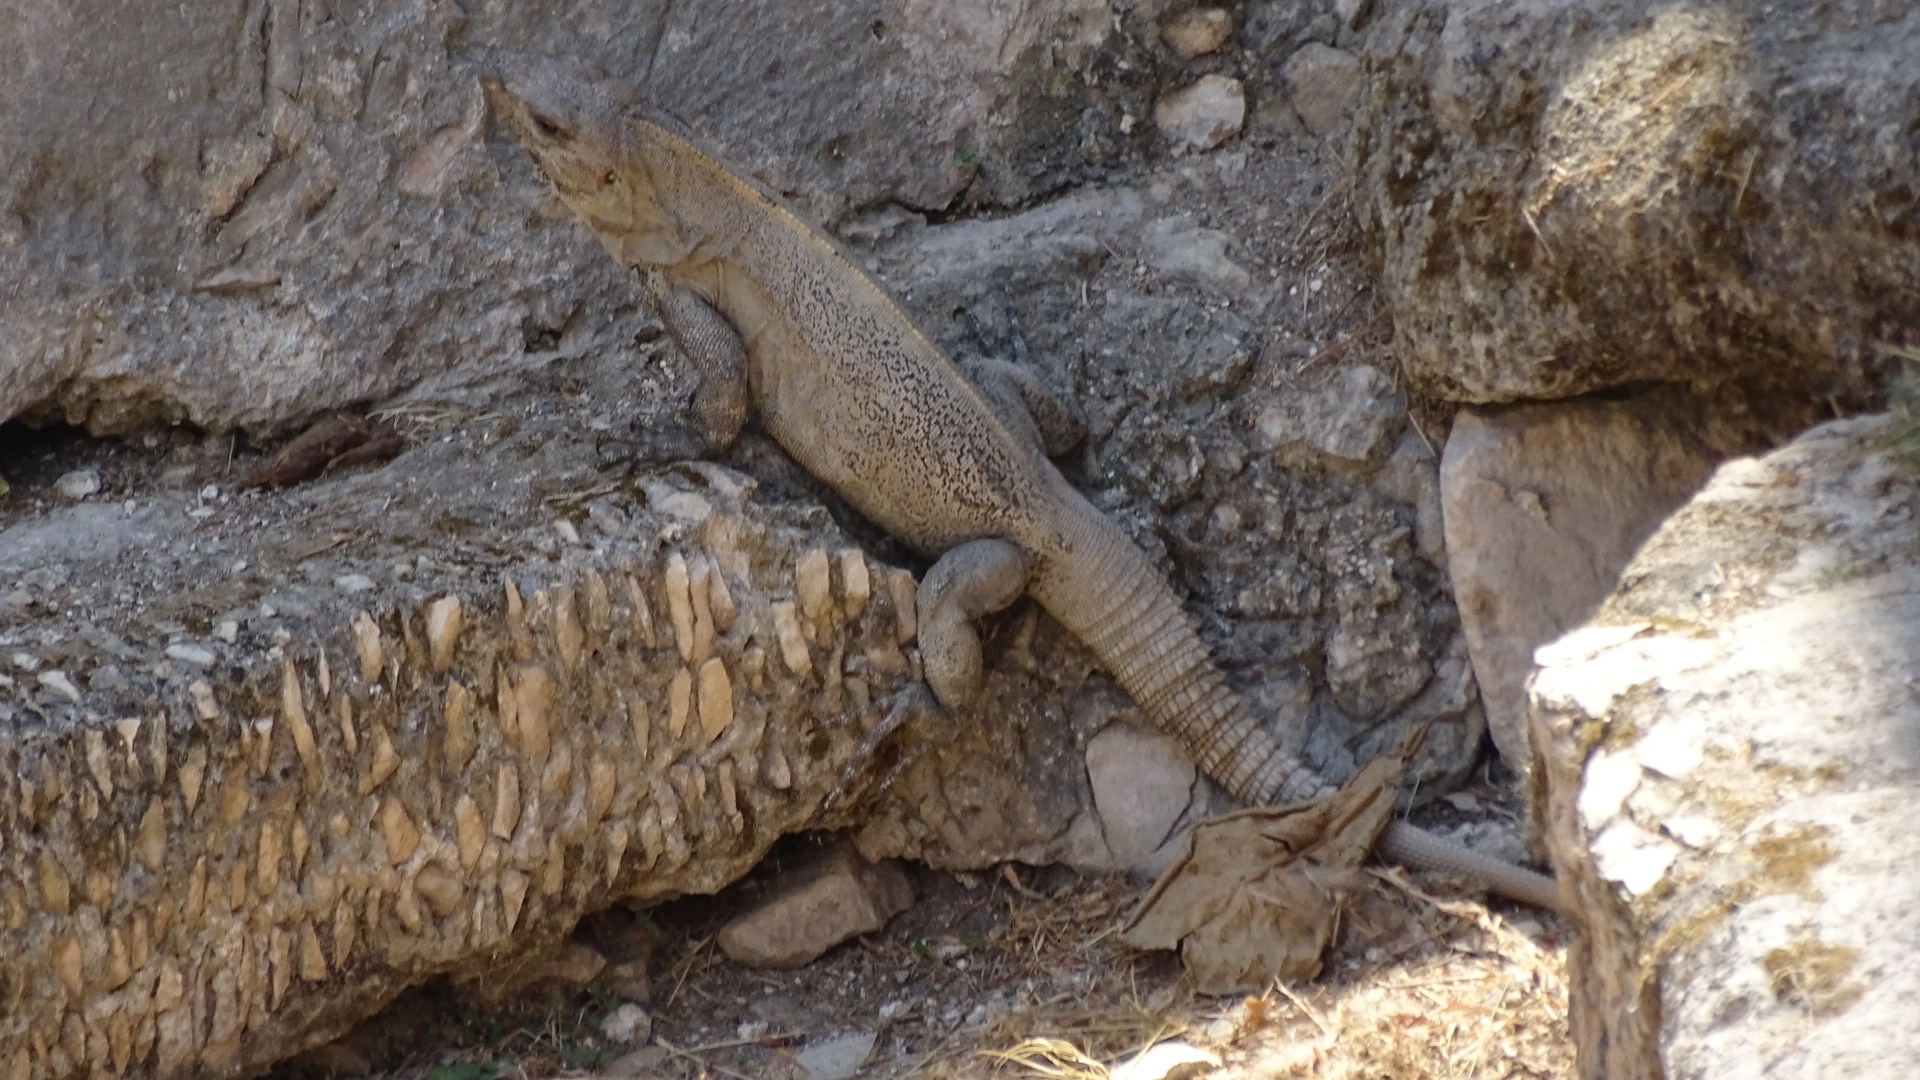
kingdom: Animalia
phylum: Chordata
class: Squamata
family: Iguanidae
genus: Ctenosaura
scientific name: Ctenosaura similis
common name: Black spiny-tailed iguana
